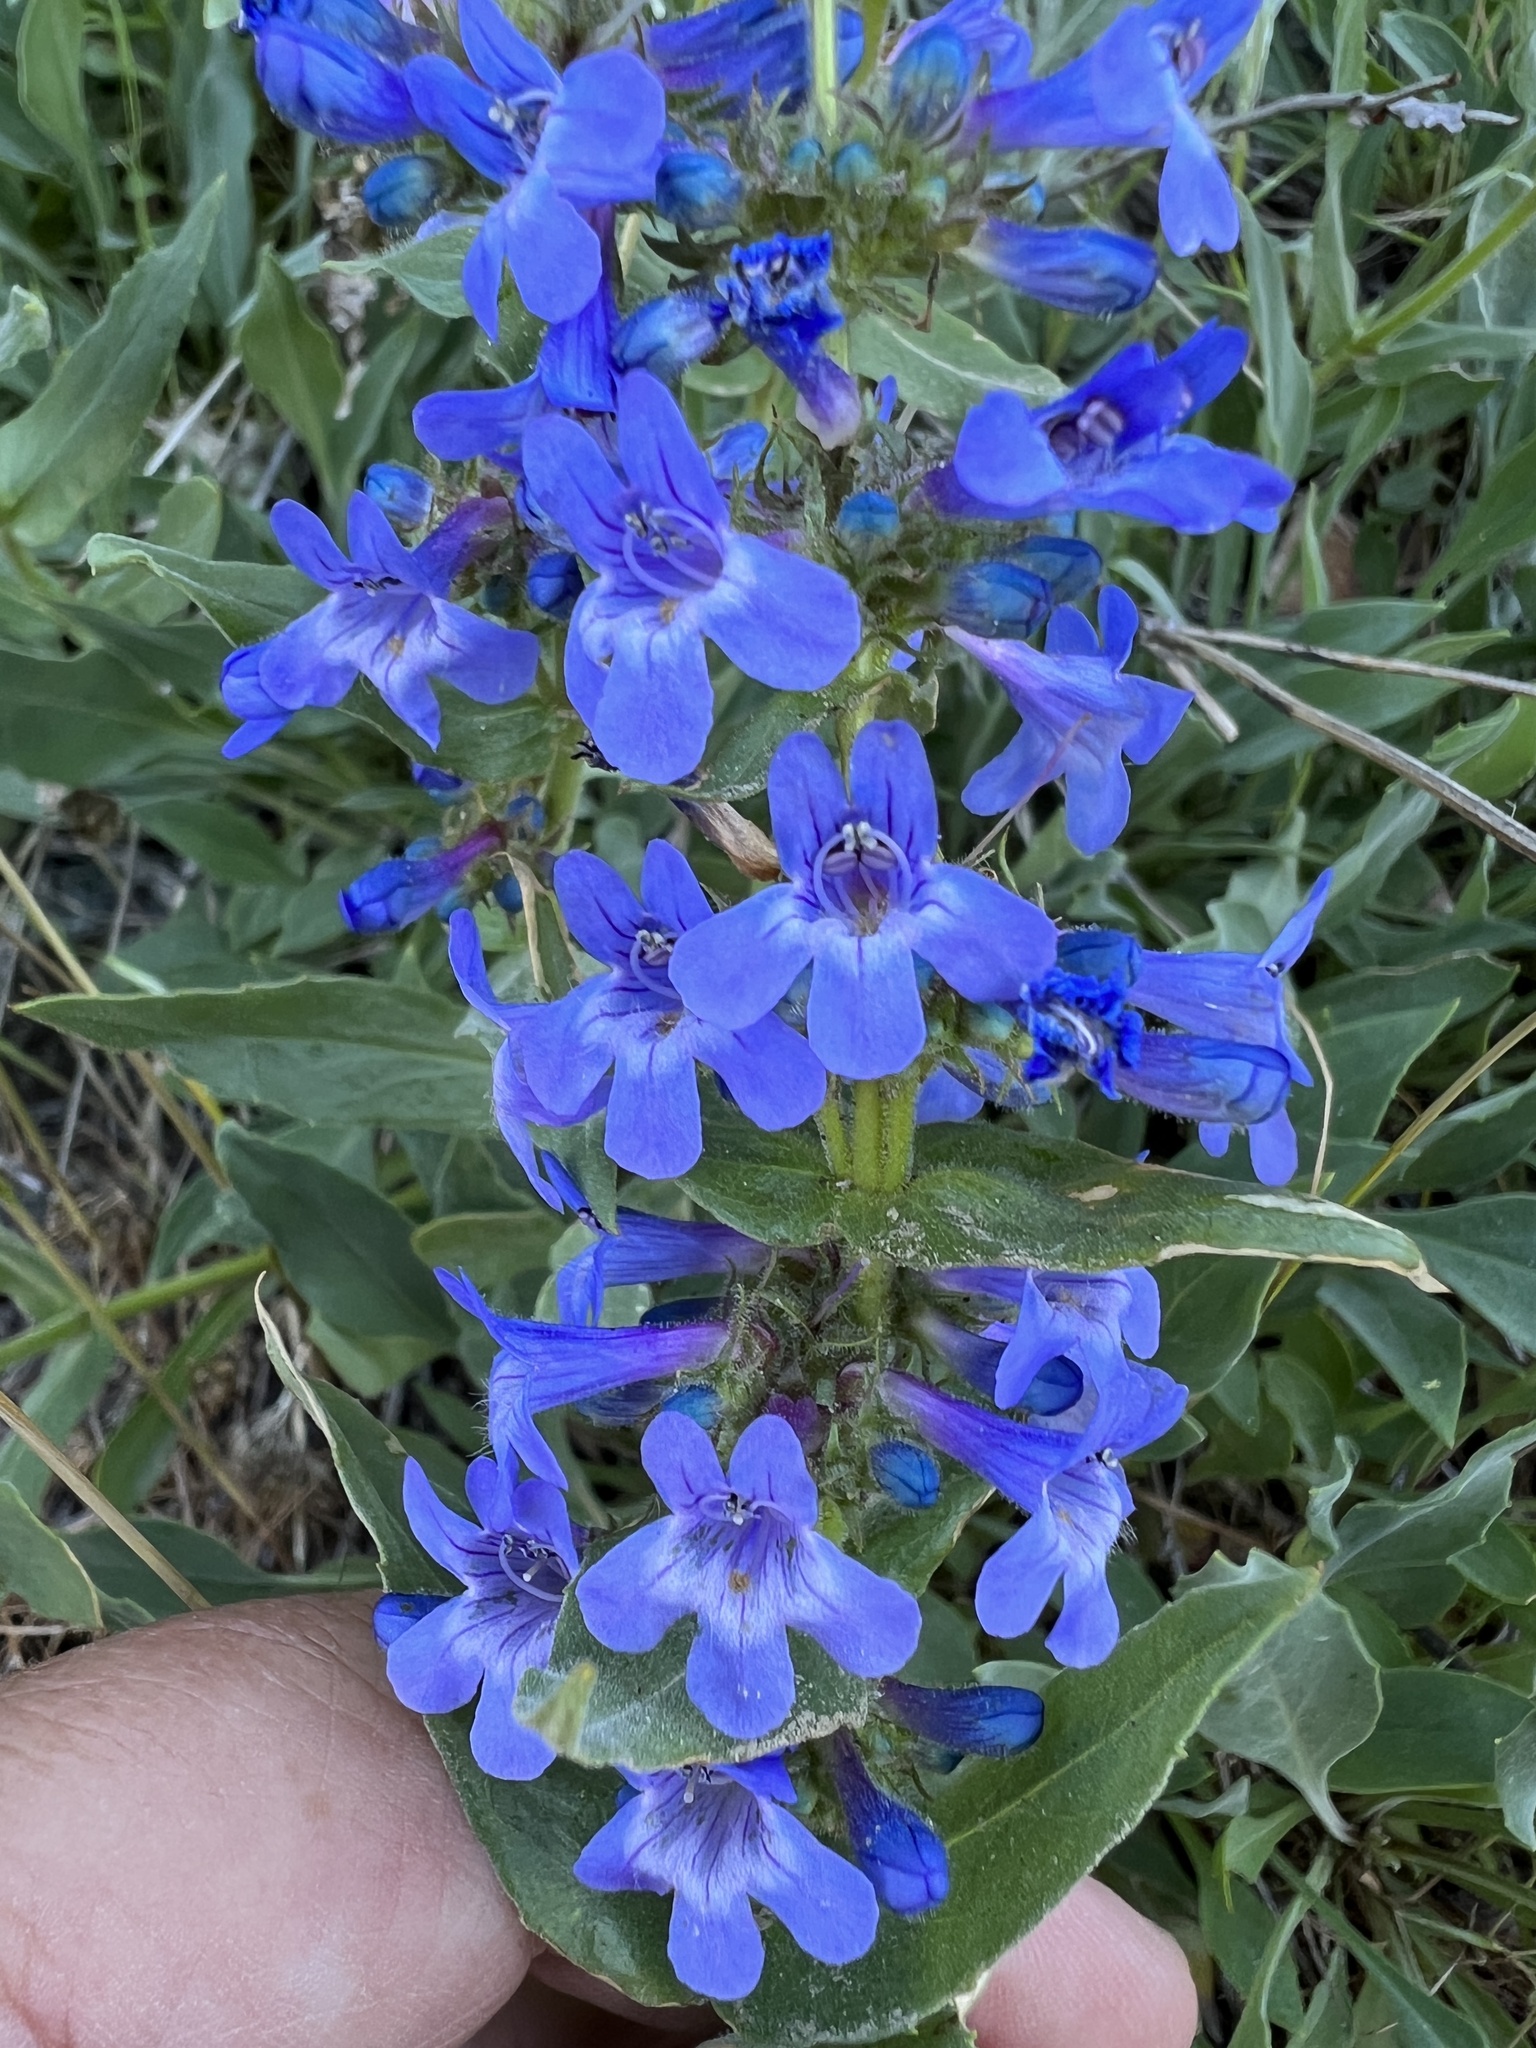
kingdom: Plantae
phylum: Tracheophyta
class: Magnoliopsida
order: Lamiales
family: Plantaginaceae
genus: Penstemon
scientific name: Penstemon pruinosus
